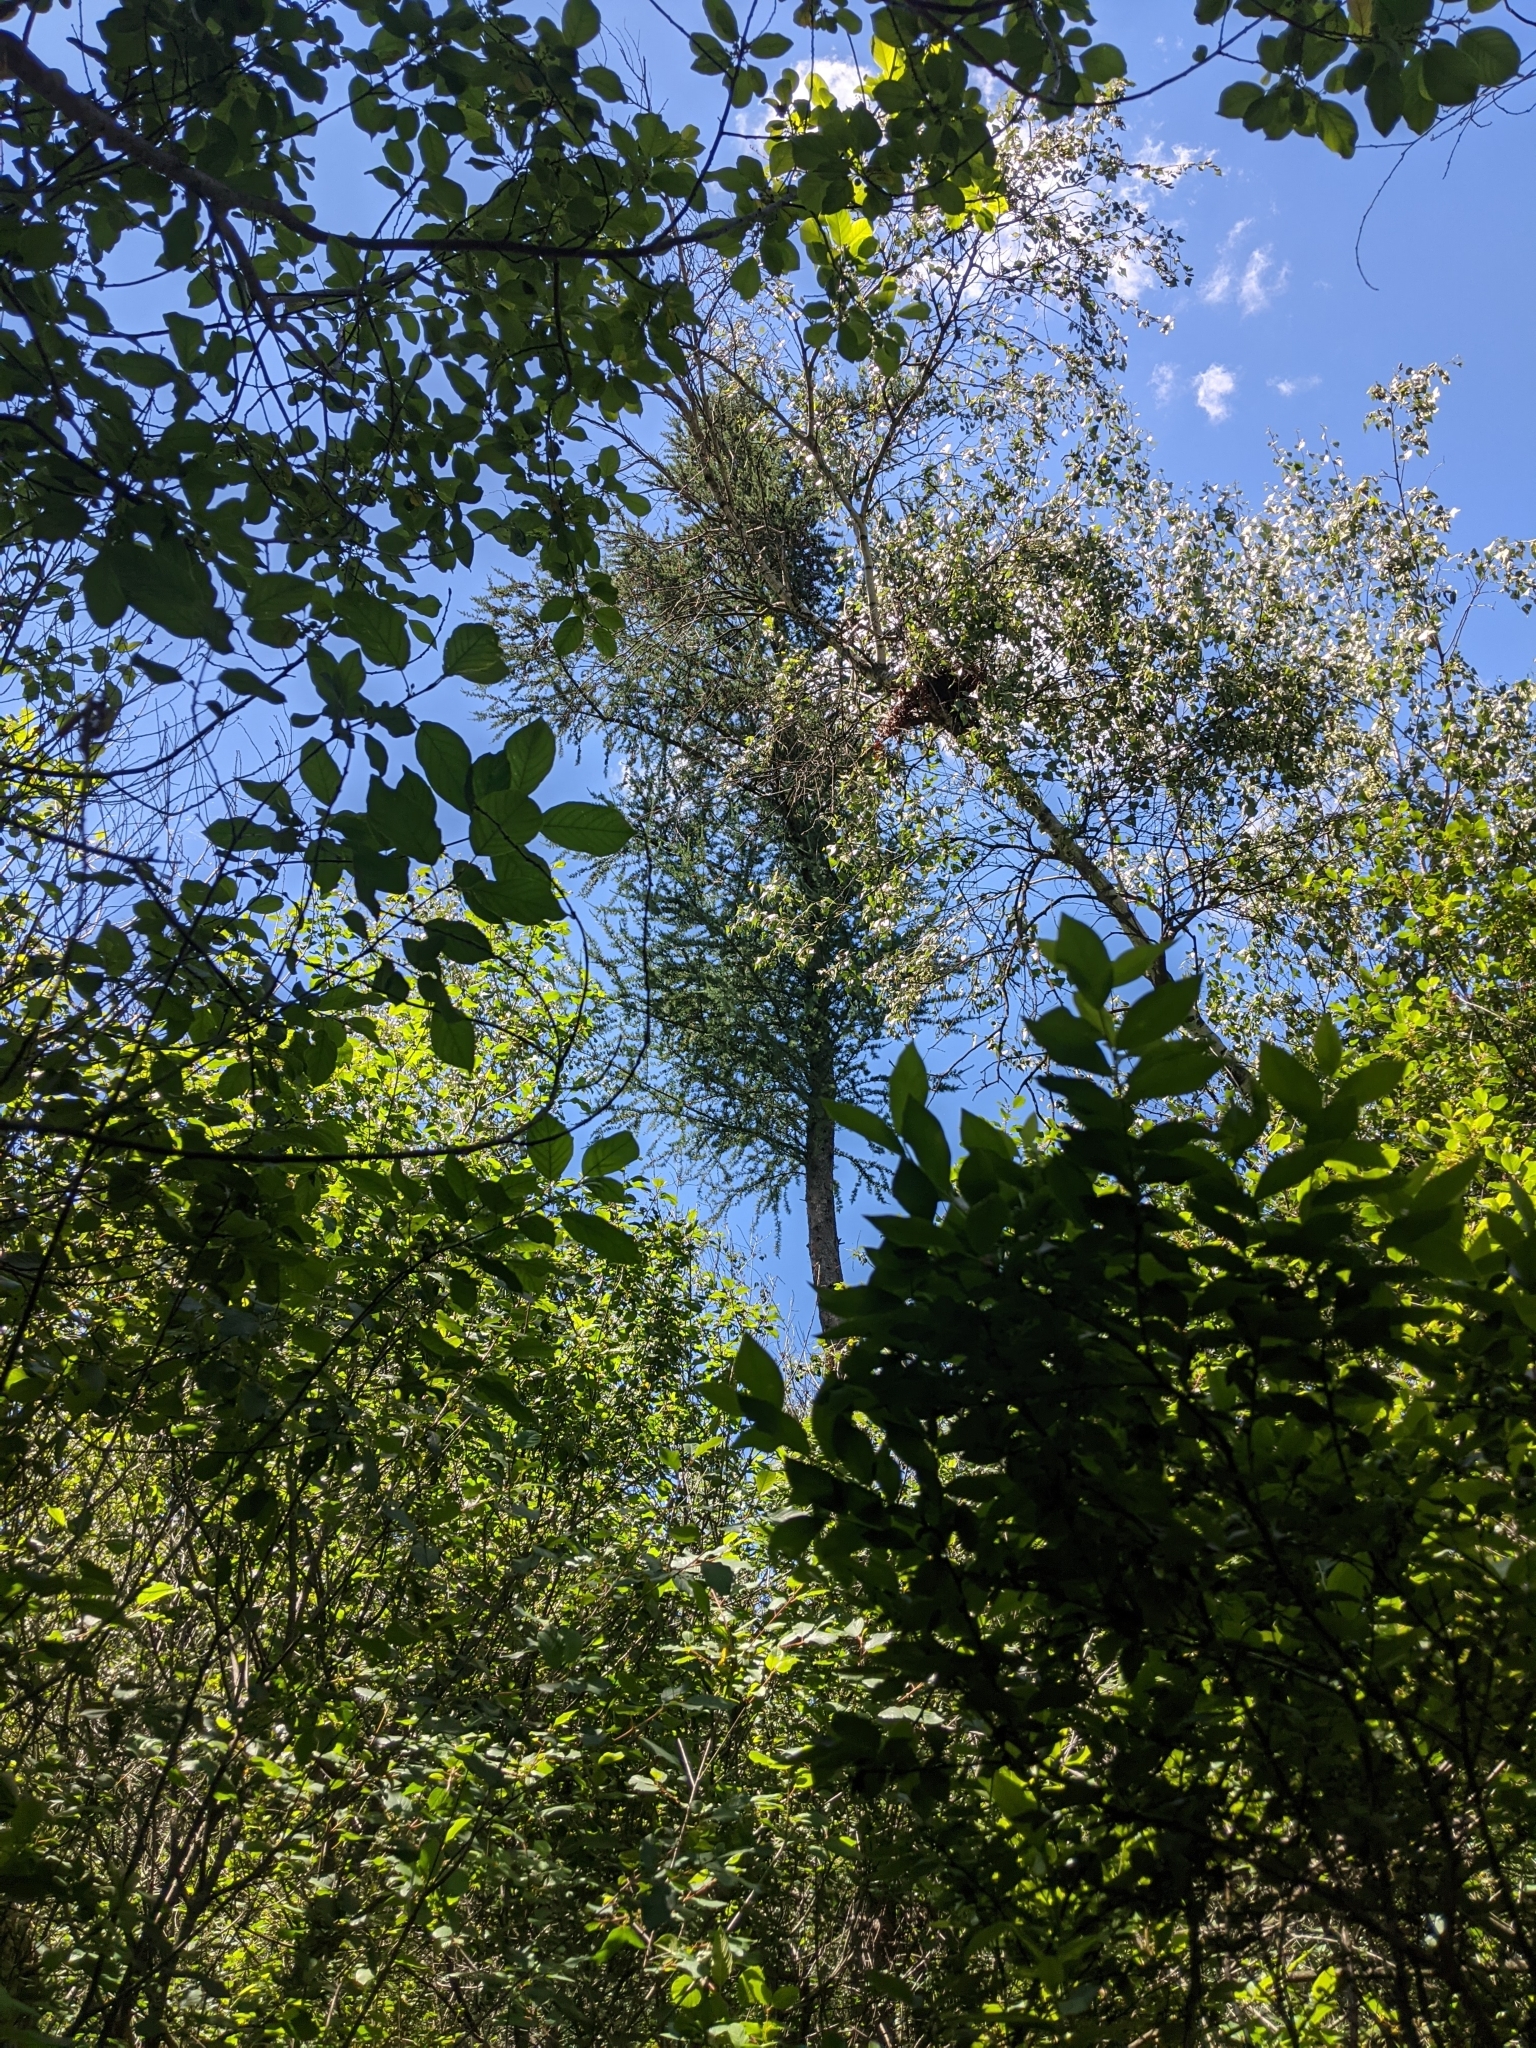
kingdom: Plantae
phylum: Tracheophyta
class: Pinopsida
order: Pinales
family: Pinaceae
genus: Larix
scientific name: Larix laricina
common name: American larch
